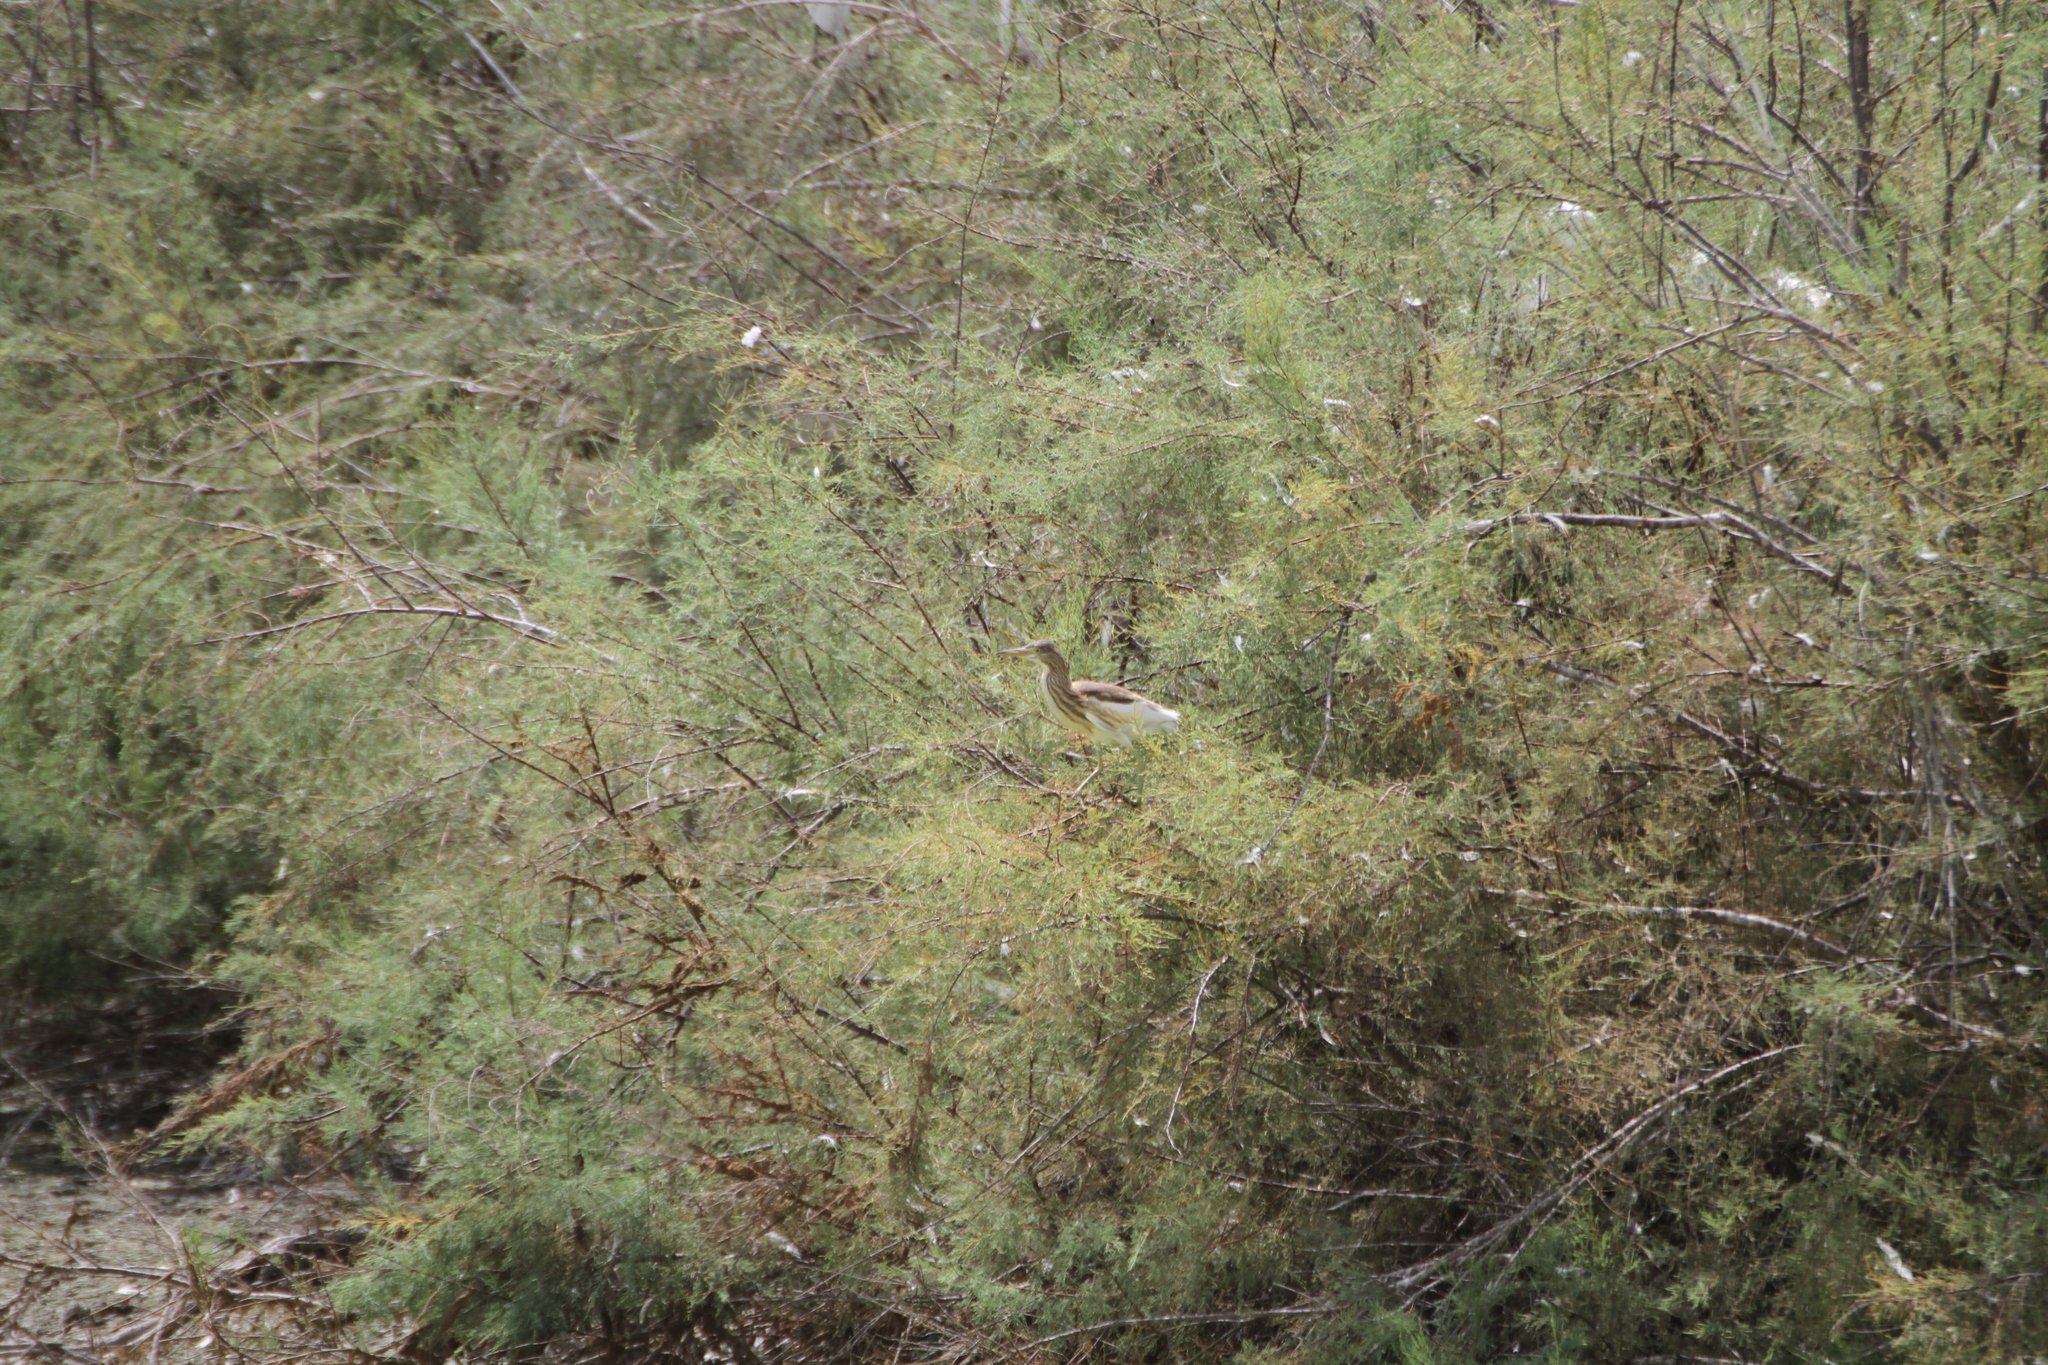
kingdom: Animalia
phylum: Chordata
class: Aves
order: Pelecaniformes
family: Ardeidae
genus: Ardeola
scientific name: Ardeola ralloides
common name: Squacco heron
